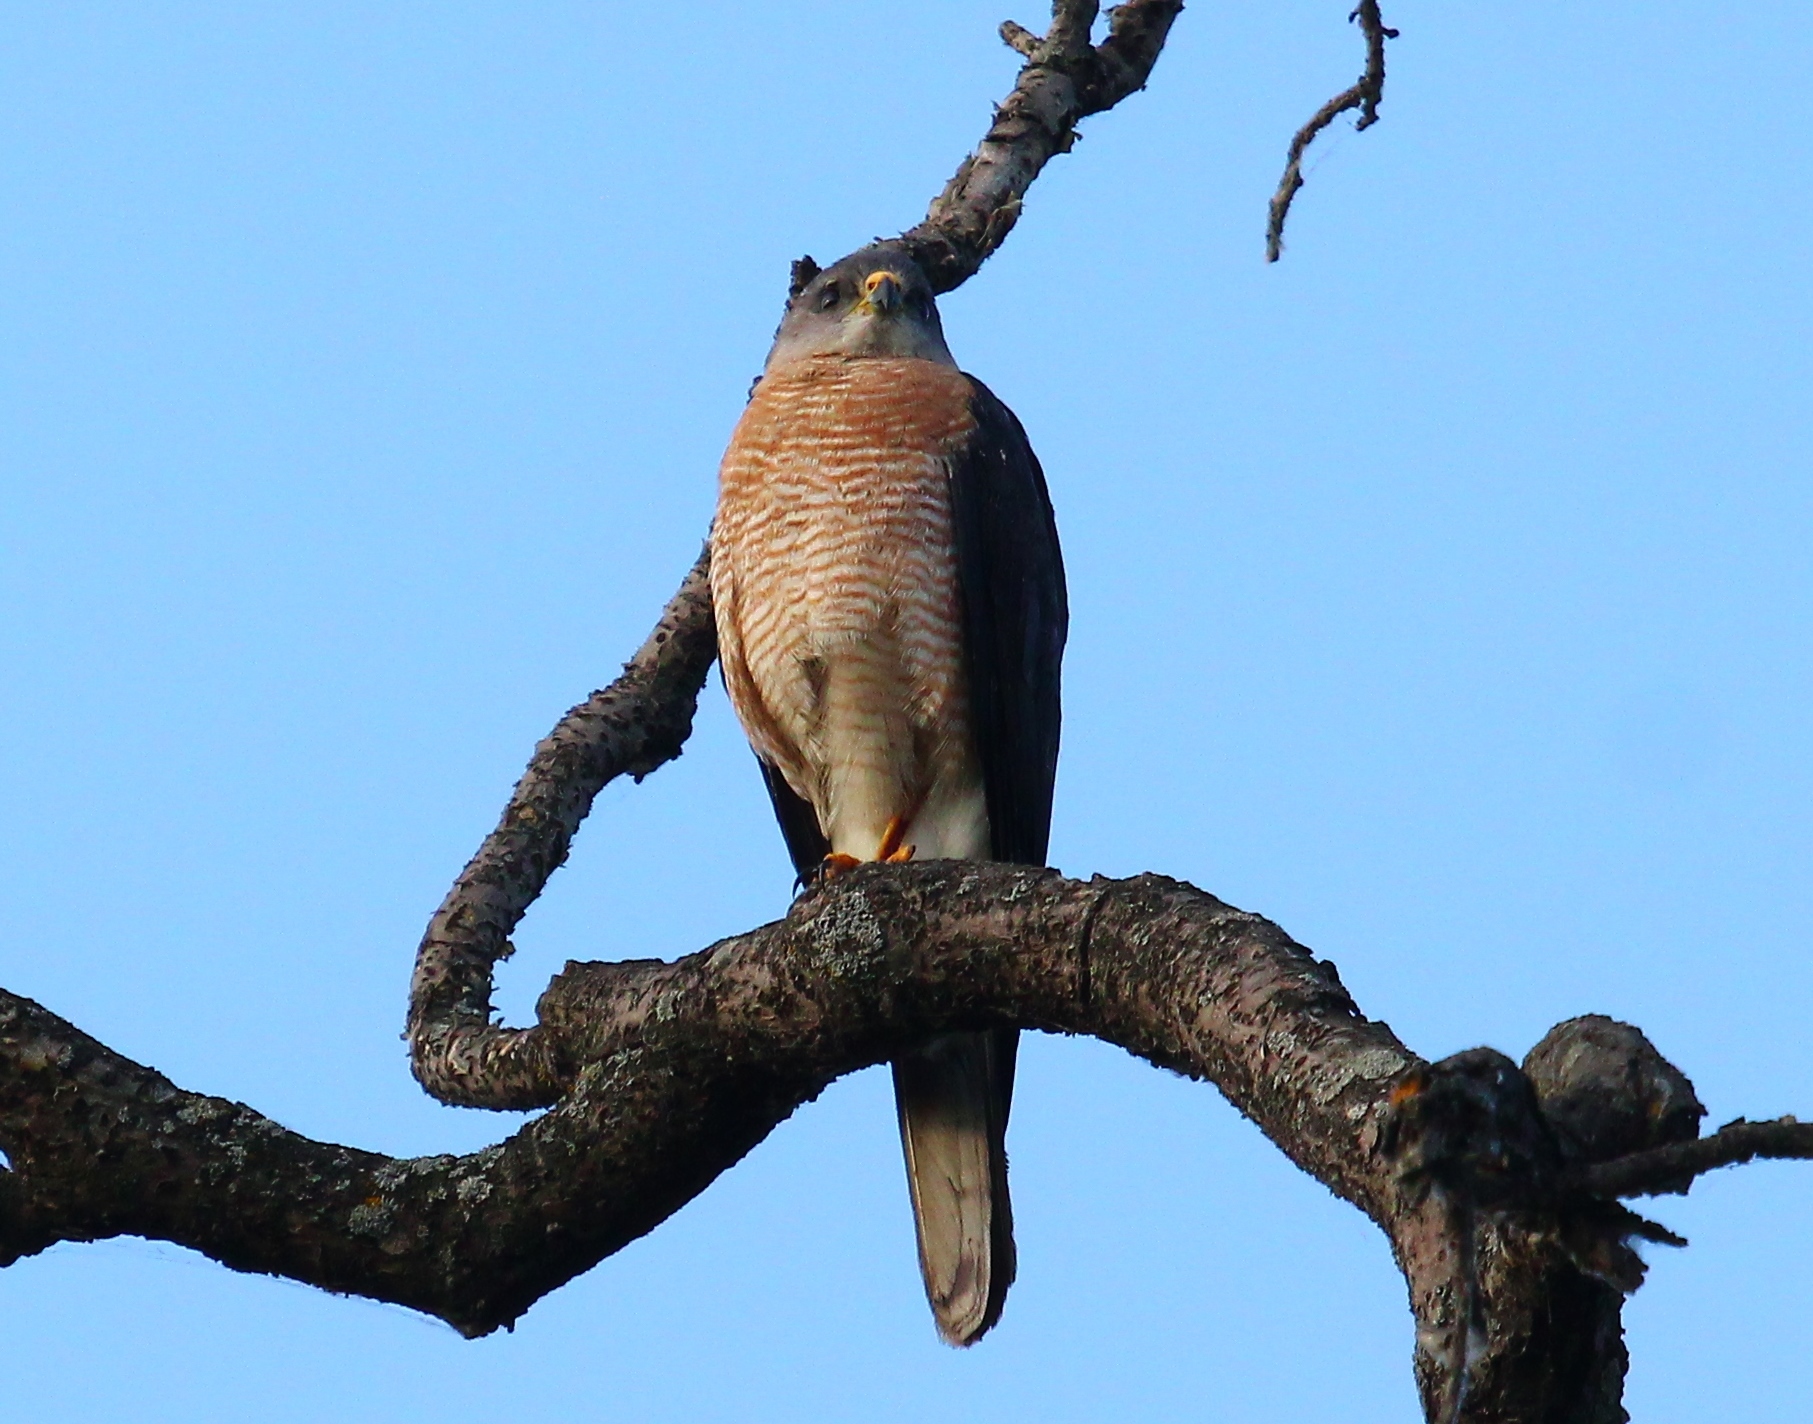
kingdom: Animalia
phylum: Chordata
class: Aves
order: Accipitriformes
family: Accipitridae
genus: Accipiter
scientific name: Accipiter brevipes
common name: Levant sparrowhawk
